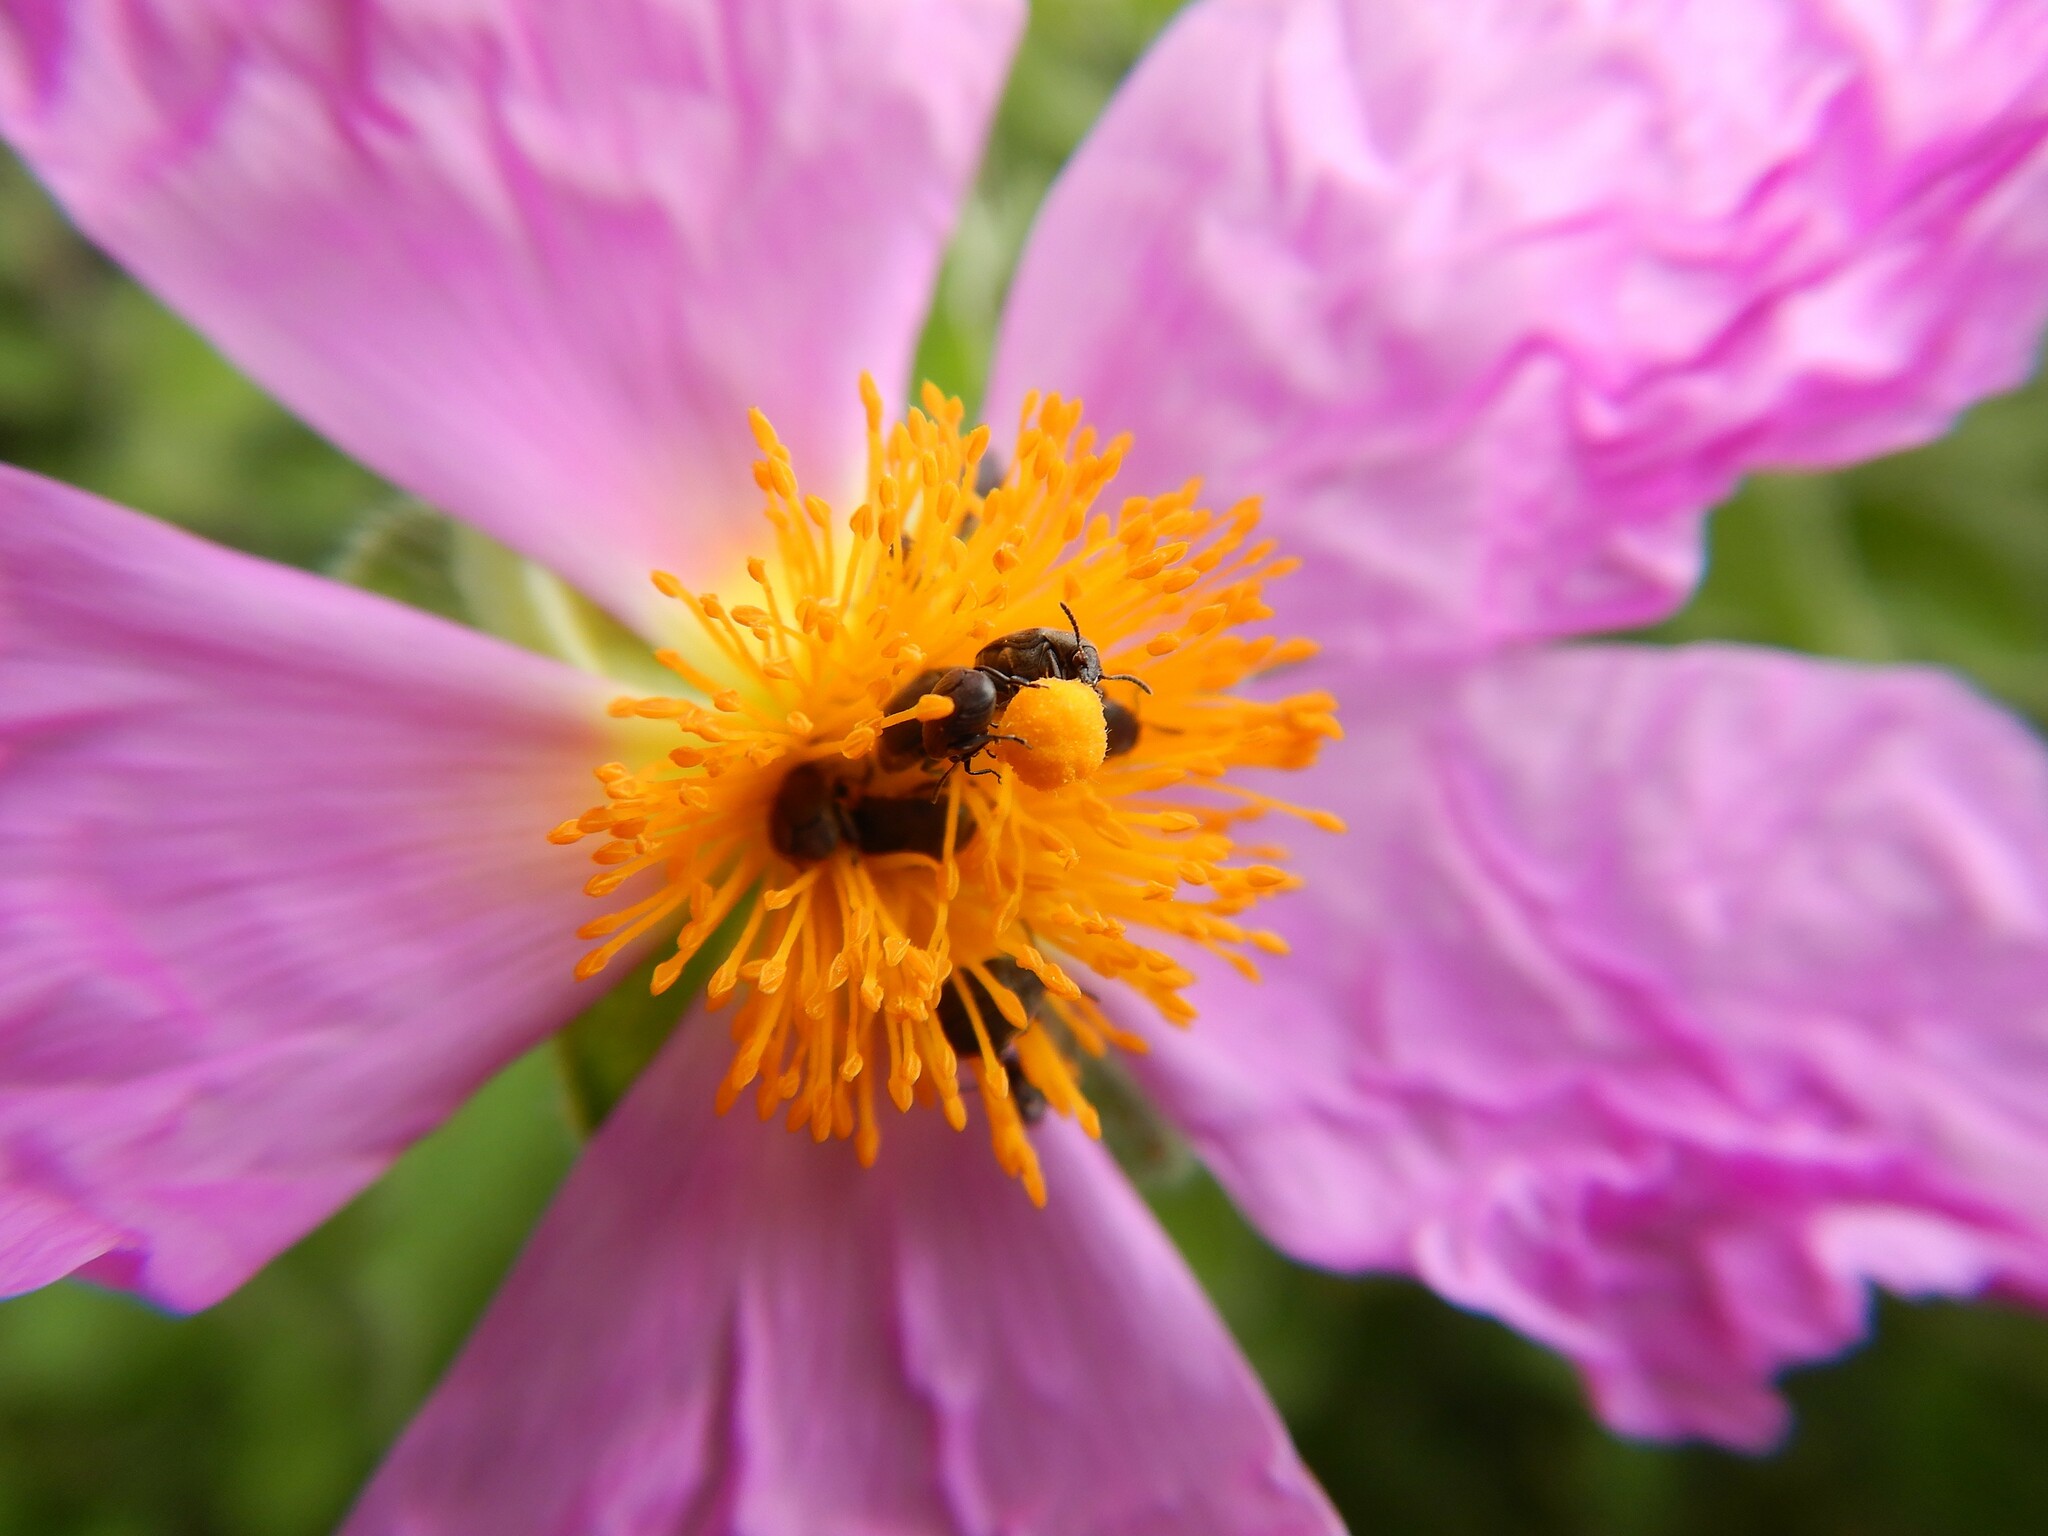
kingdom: Animalia
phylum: Arthropoda
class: Insecta
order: Coleoptera
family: Chrysomelidae
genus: Bruchidius
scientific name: Bruchidius villosus
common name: Scotch broom bruchid
